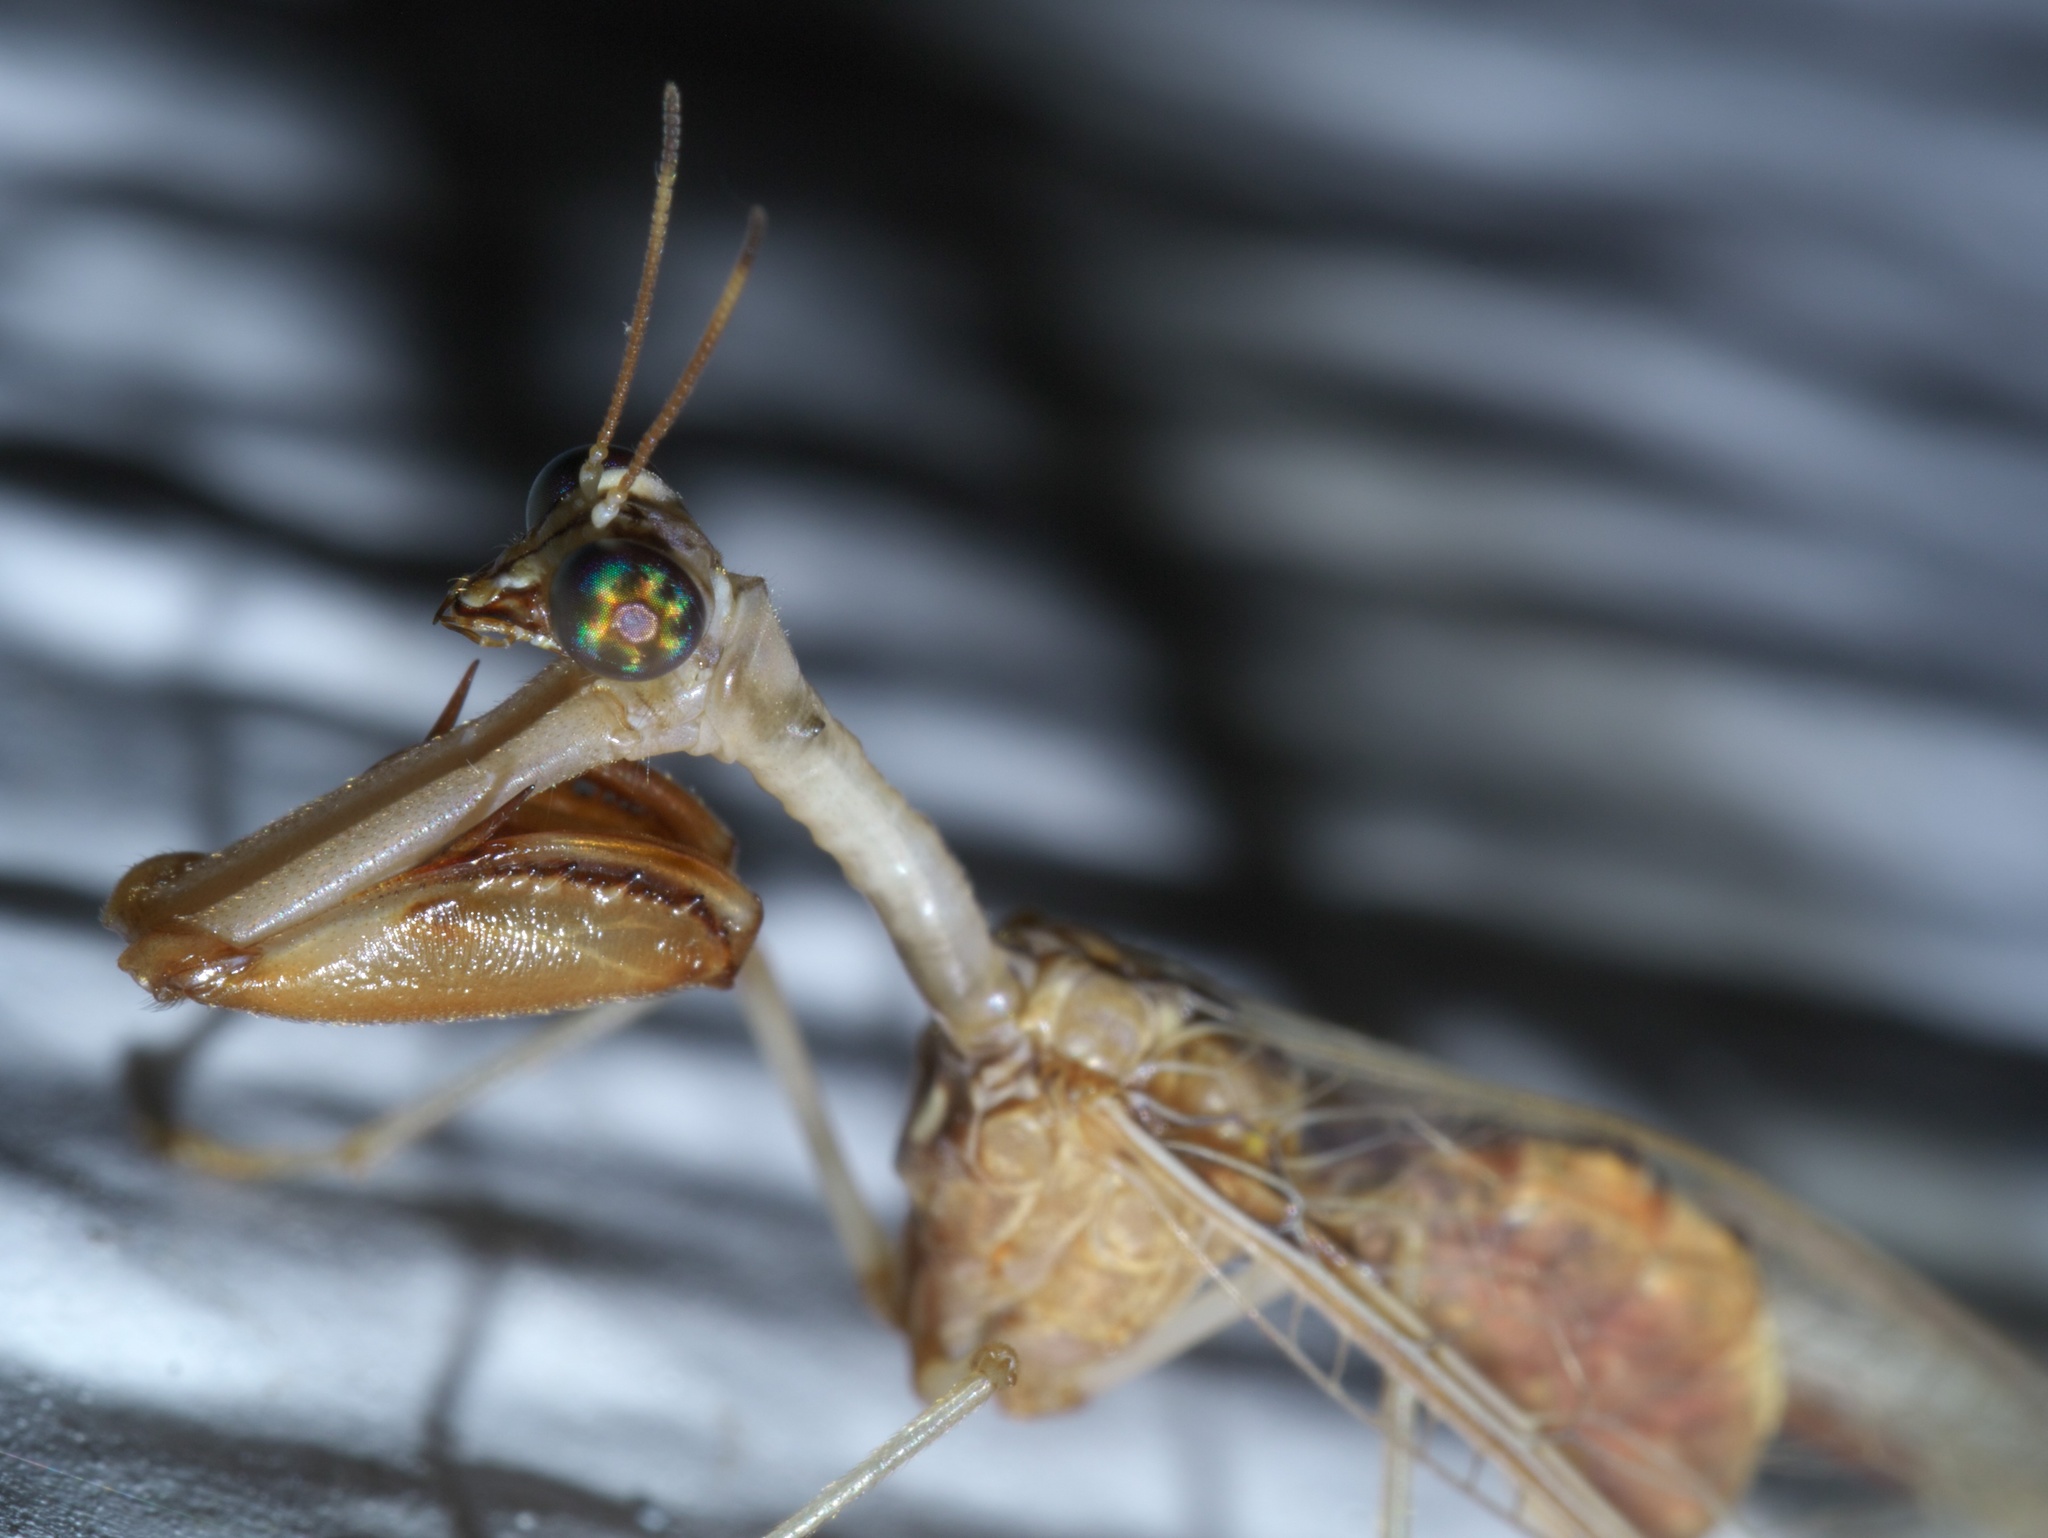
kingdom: Animalia
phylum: Arthropoda
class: Insecta
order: Neuroptera
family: Mantispidae
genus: Dicromantispa
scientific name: Dicromantispa interrupta
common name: Four-spotted mantidfly
